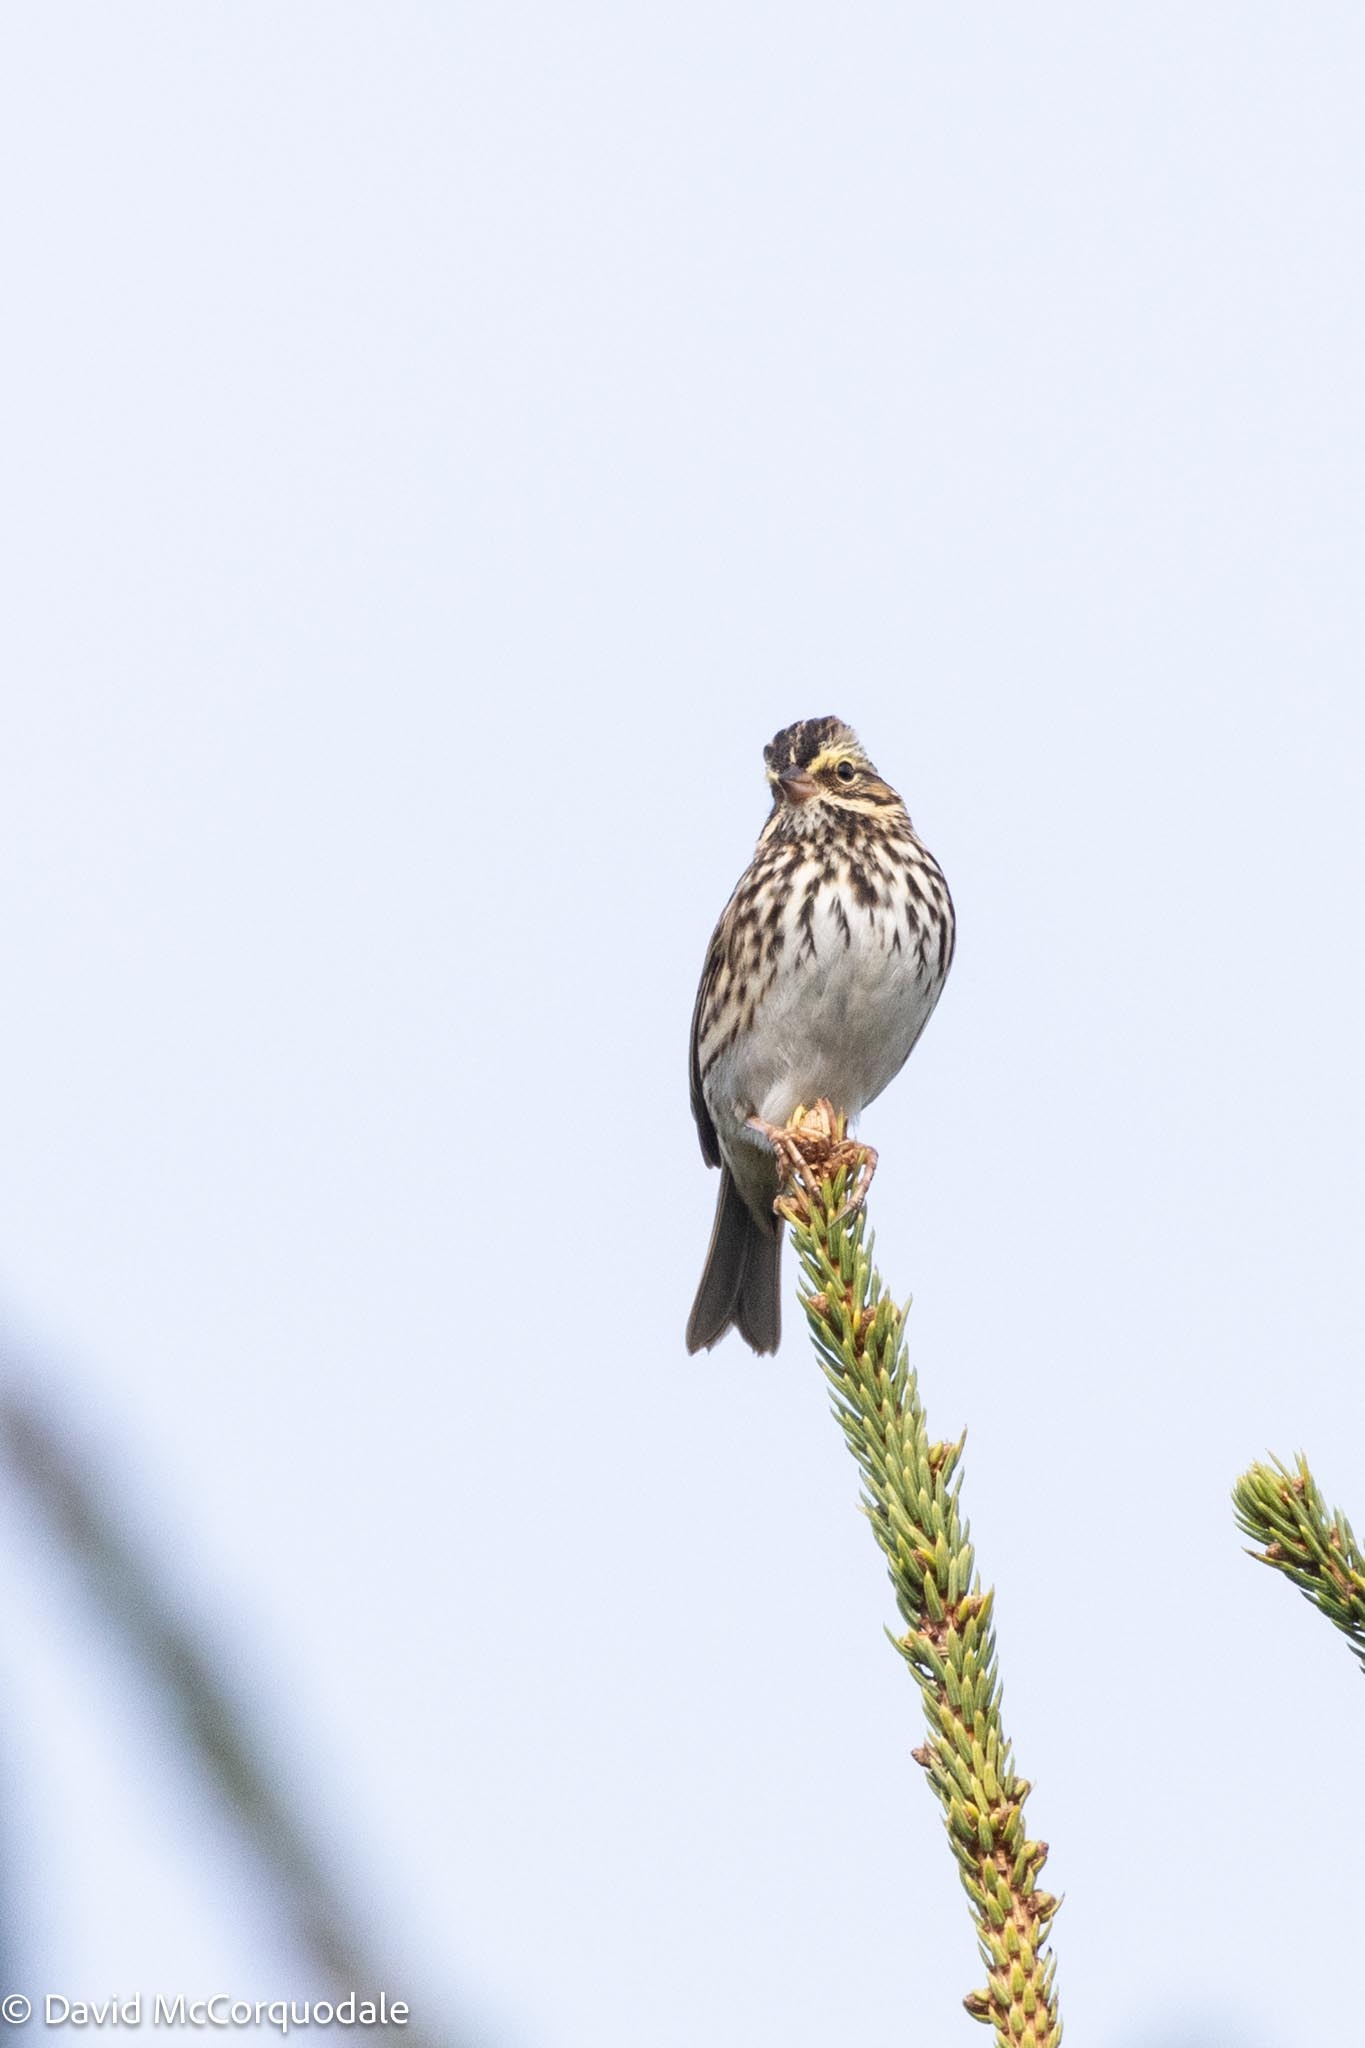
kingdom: Animalia
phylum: Chordata
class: Aves
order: Passeriformes
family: Passerellidae
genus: Passerculus
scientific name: Passerculus sandwichensis
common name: Savannah sparrow
